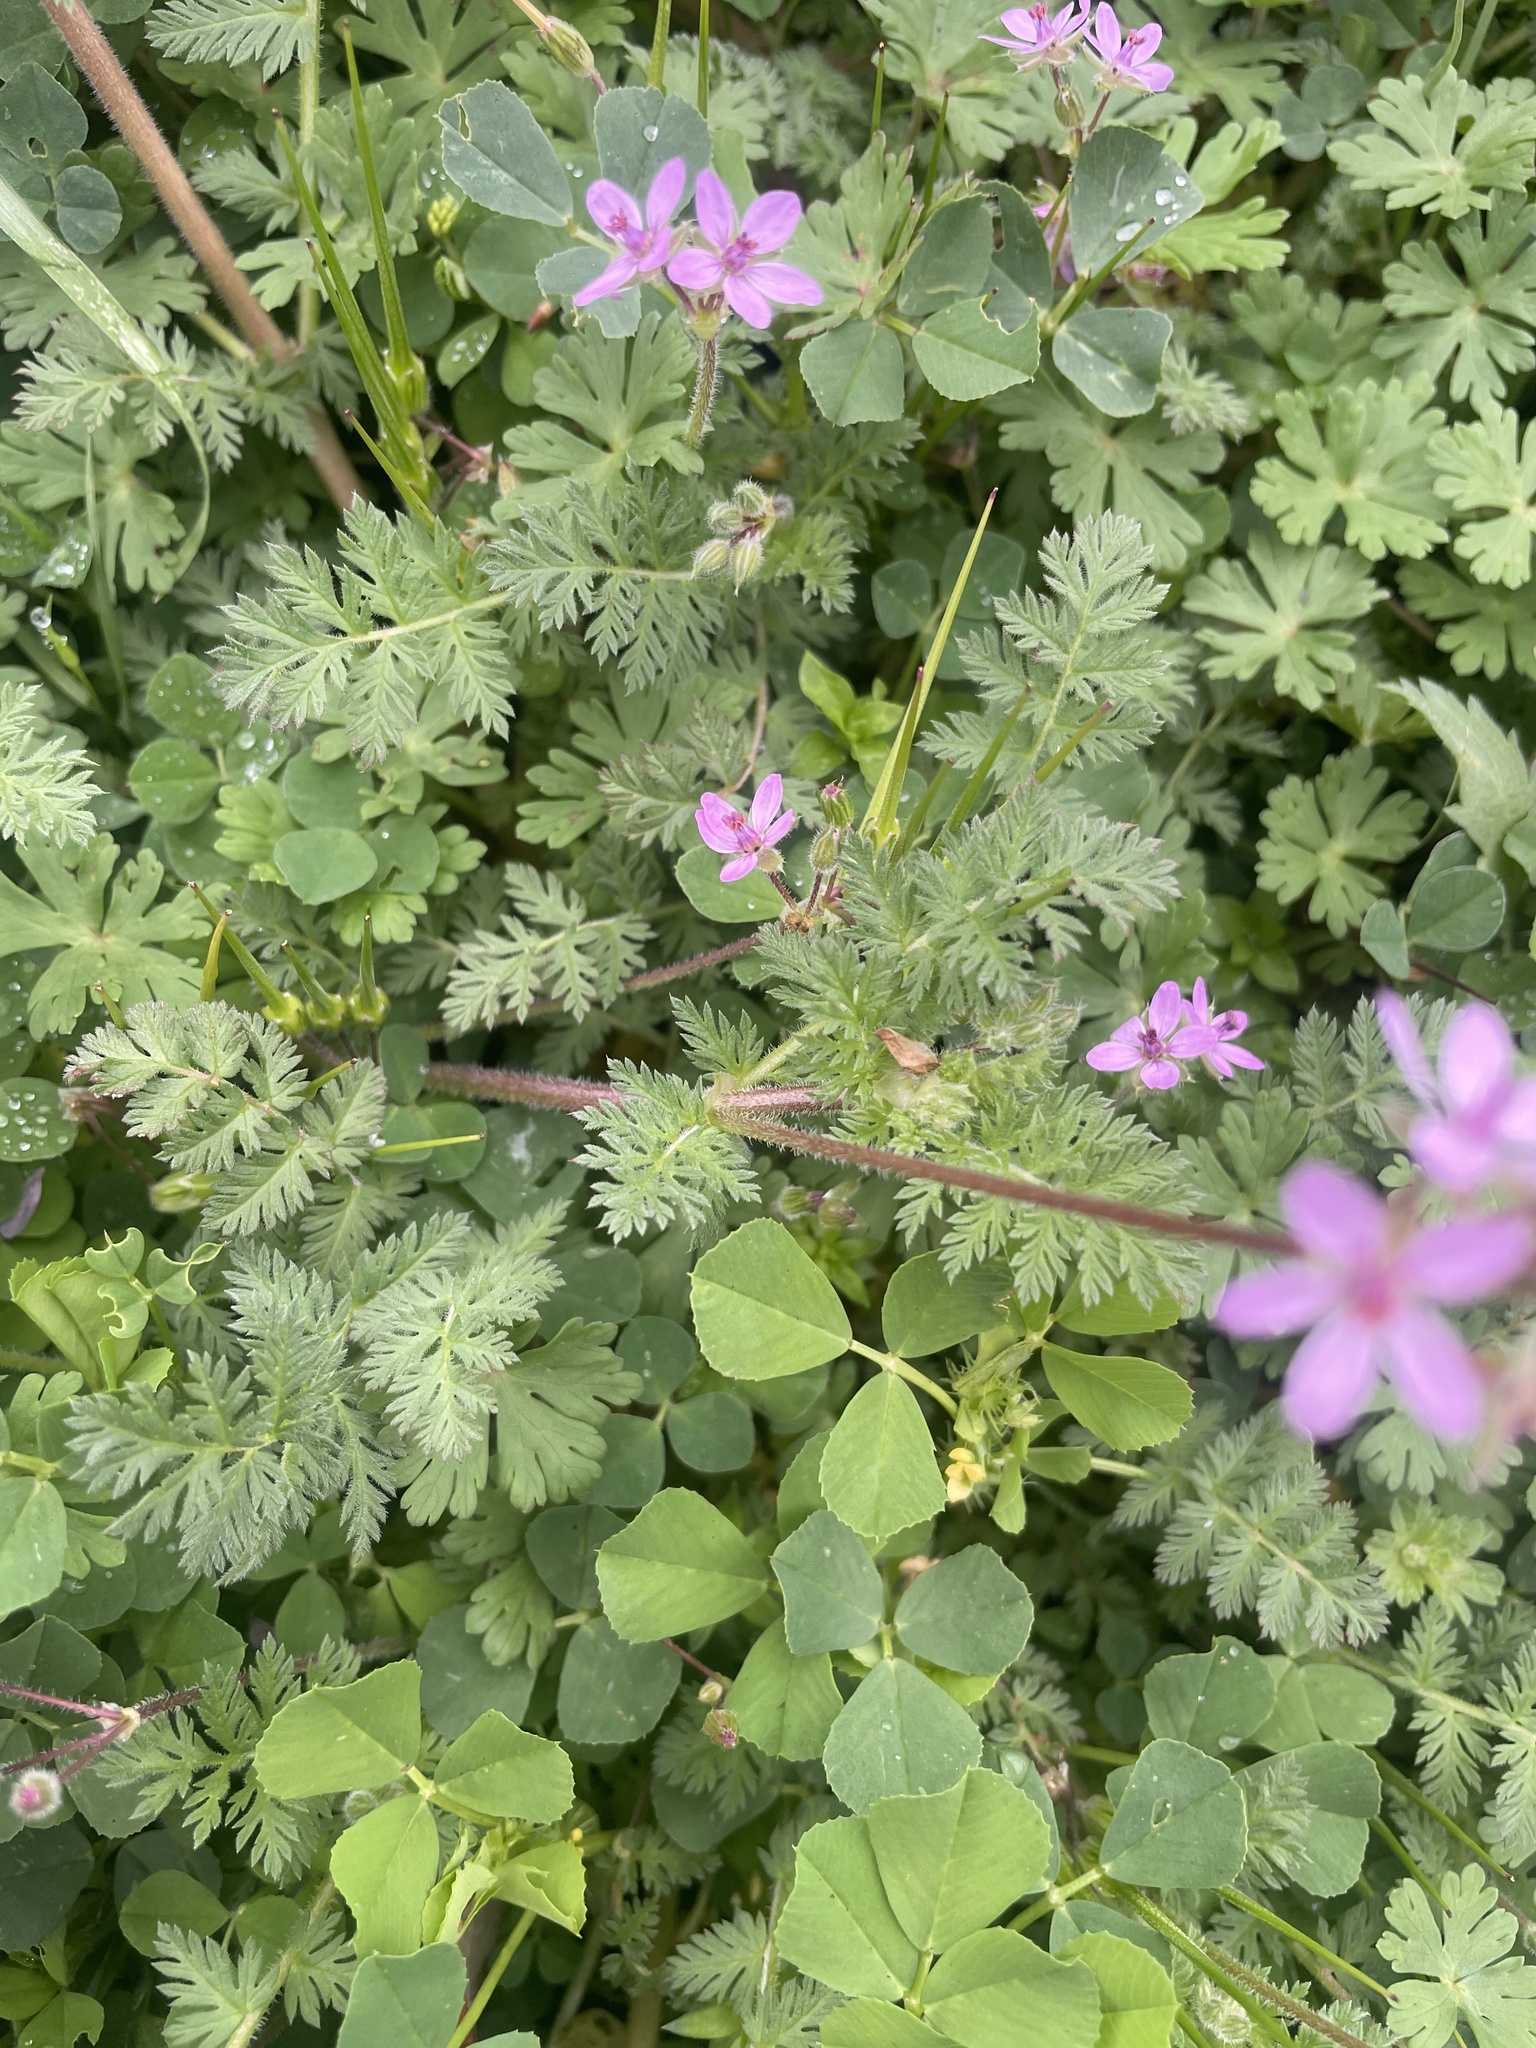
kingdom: Plantae
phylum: Tracheophyta
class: Magnoliopsida
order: Geraniales
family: Geraniaceae
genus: Erodium
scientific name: Erodium cicutarium
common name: Common stork's-bill
